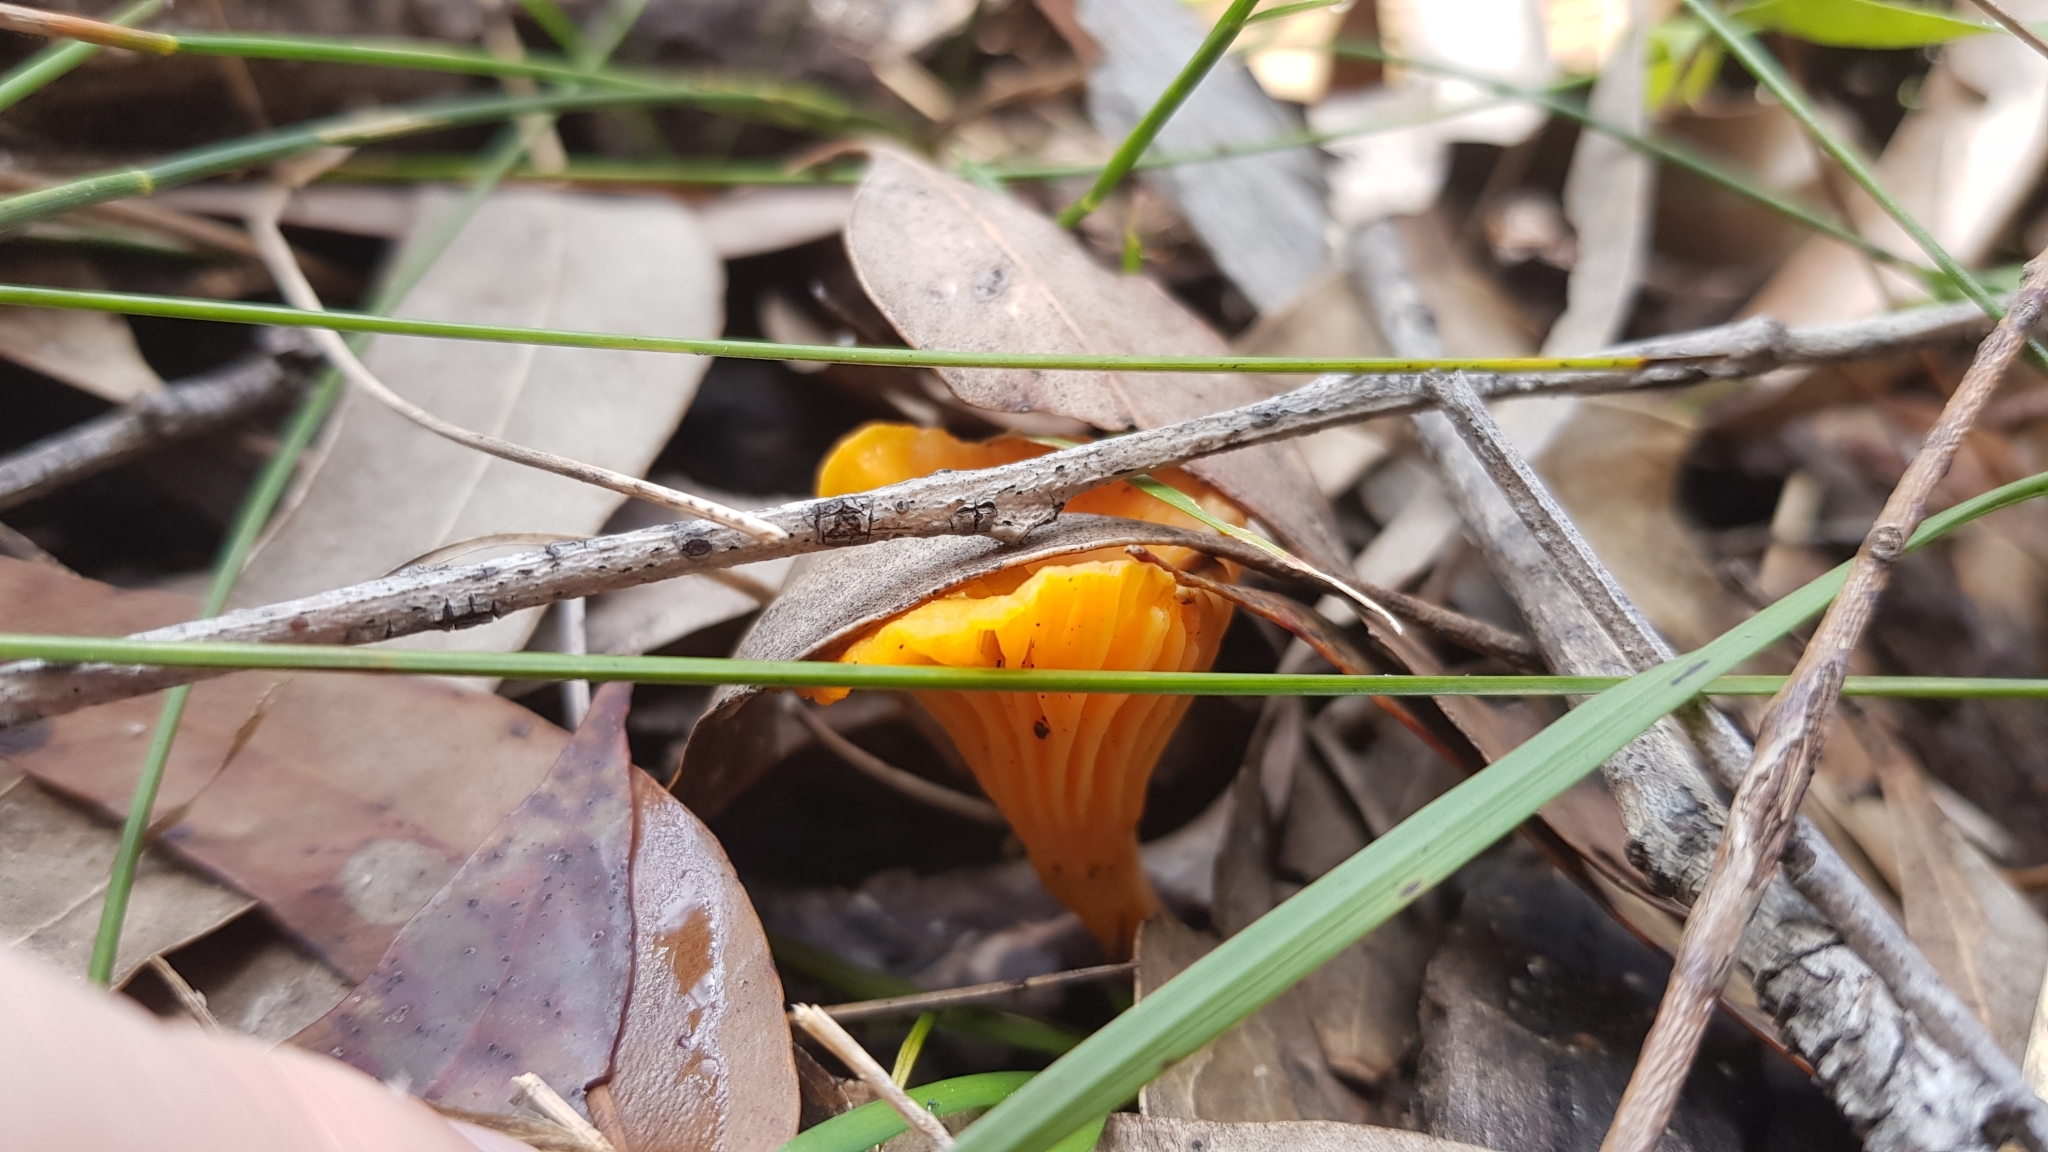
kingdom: Fungi
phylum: Basidiomycota
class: Agaricomycetes
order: Cantharellales
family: Hydnaceae
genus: Cantharellus
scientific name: Cantharellus
